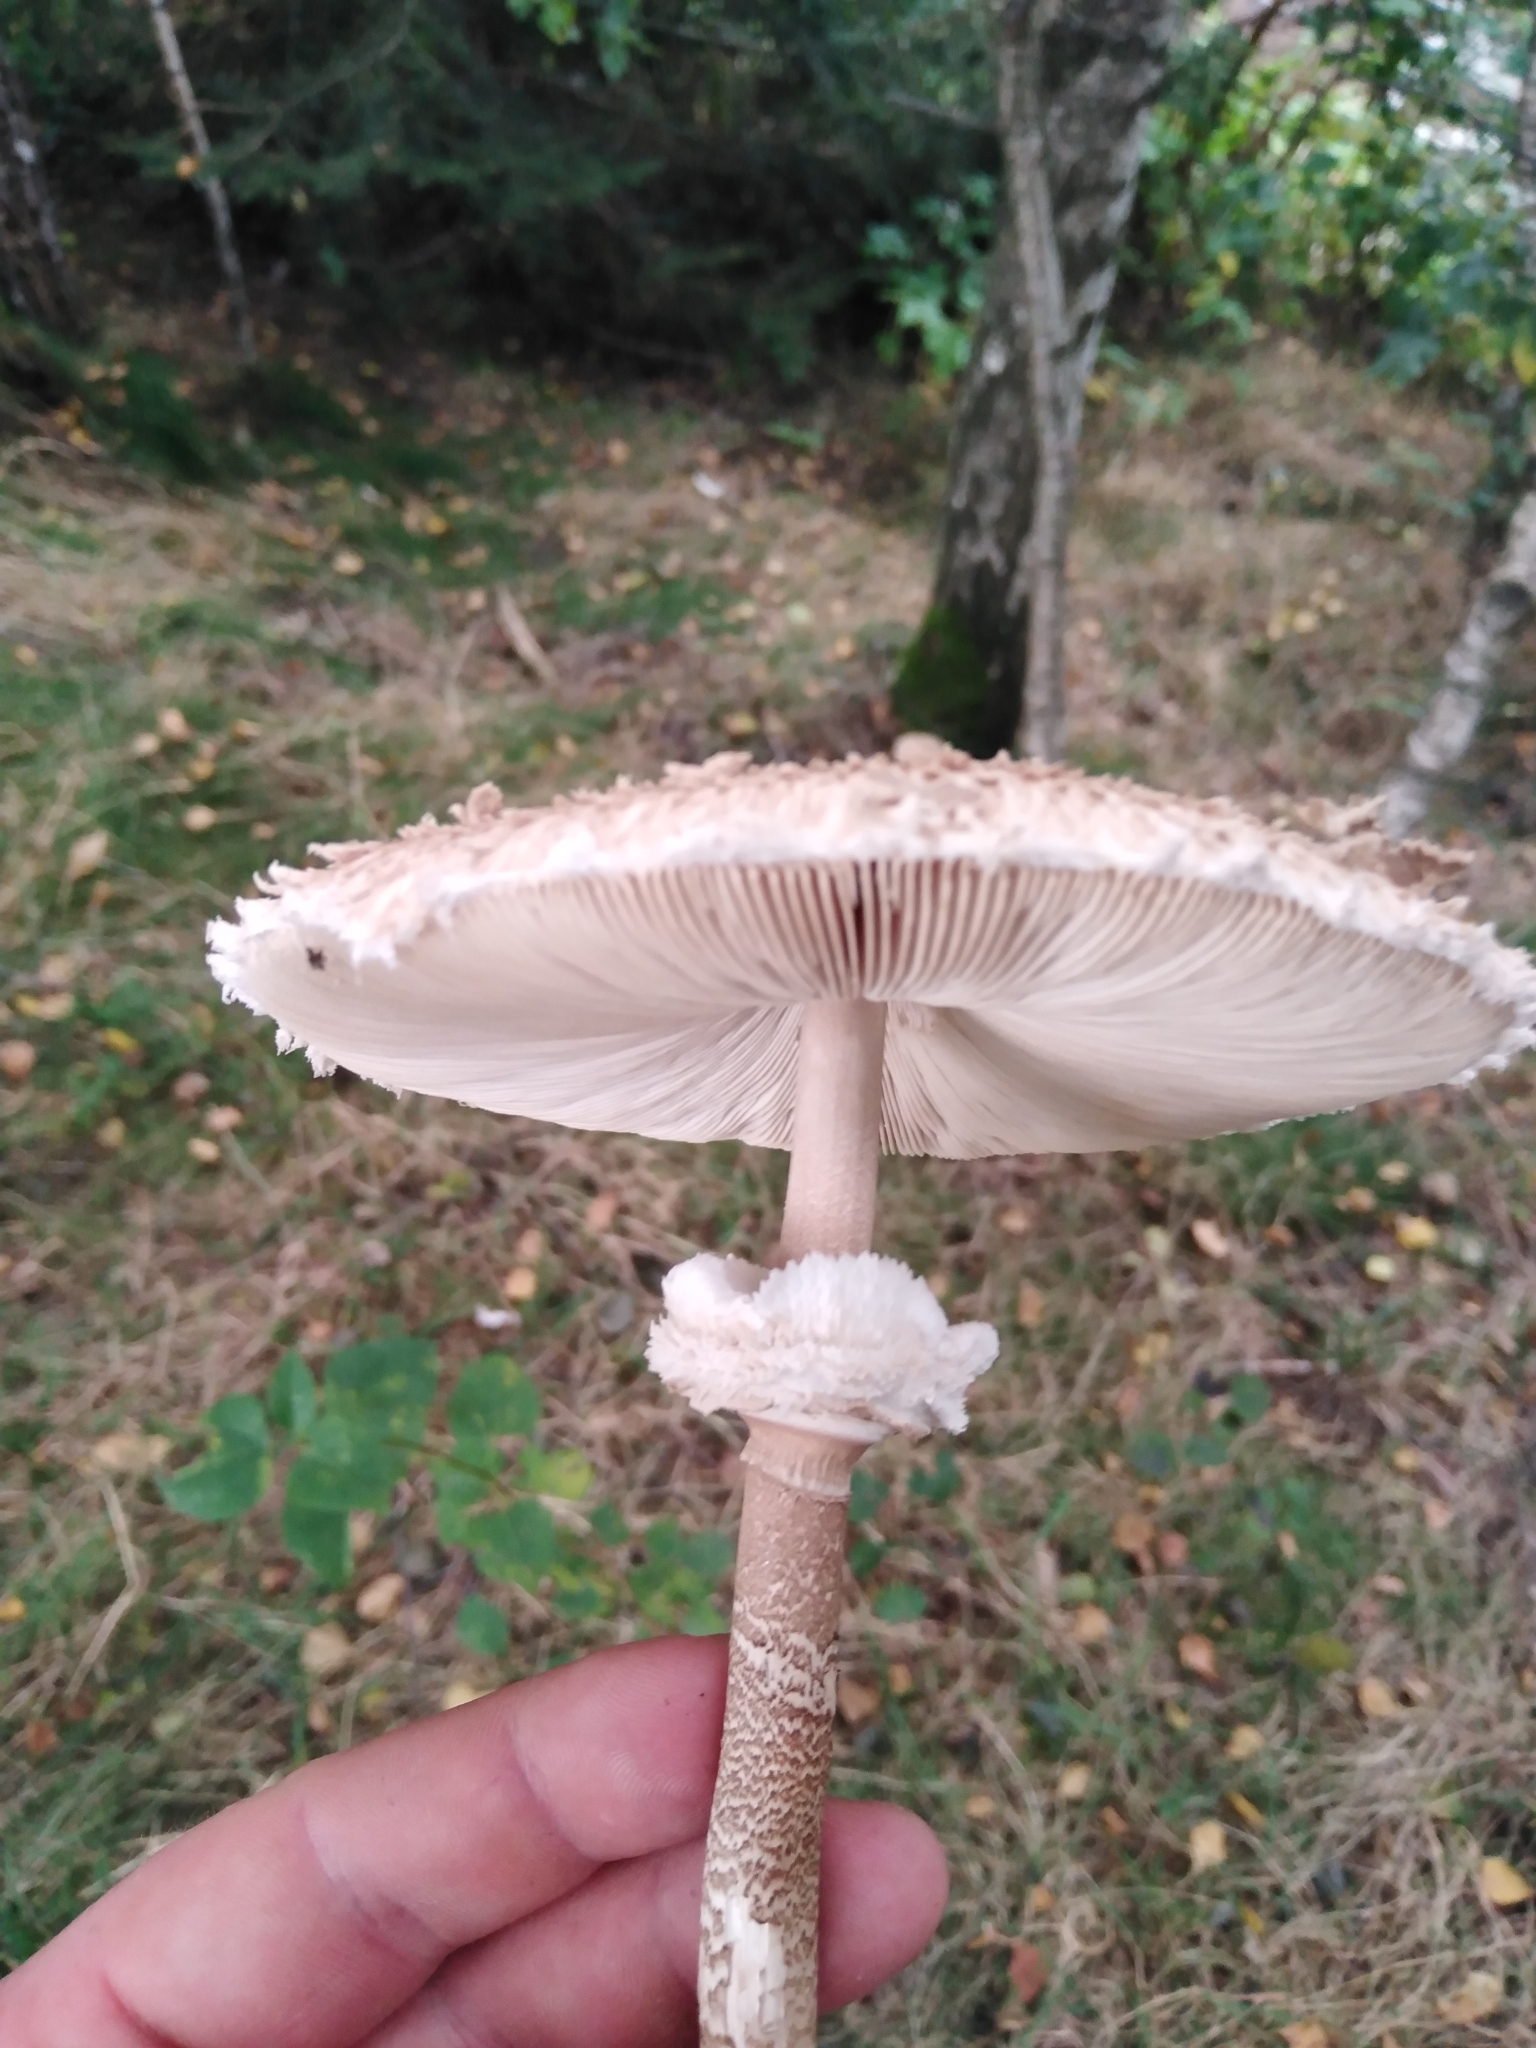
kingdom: Fungi
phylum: Basidiomycota
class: Agaricomycetes
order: Agaricales
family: Agaricaceae
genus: Macrolepiota
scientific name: Macrolepiota procera
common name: Parasol
